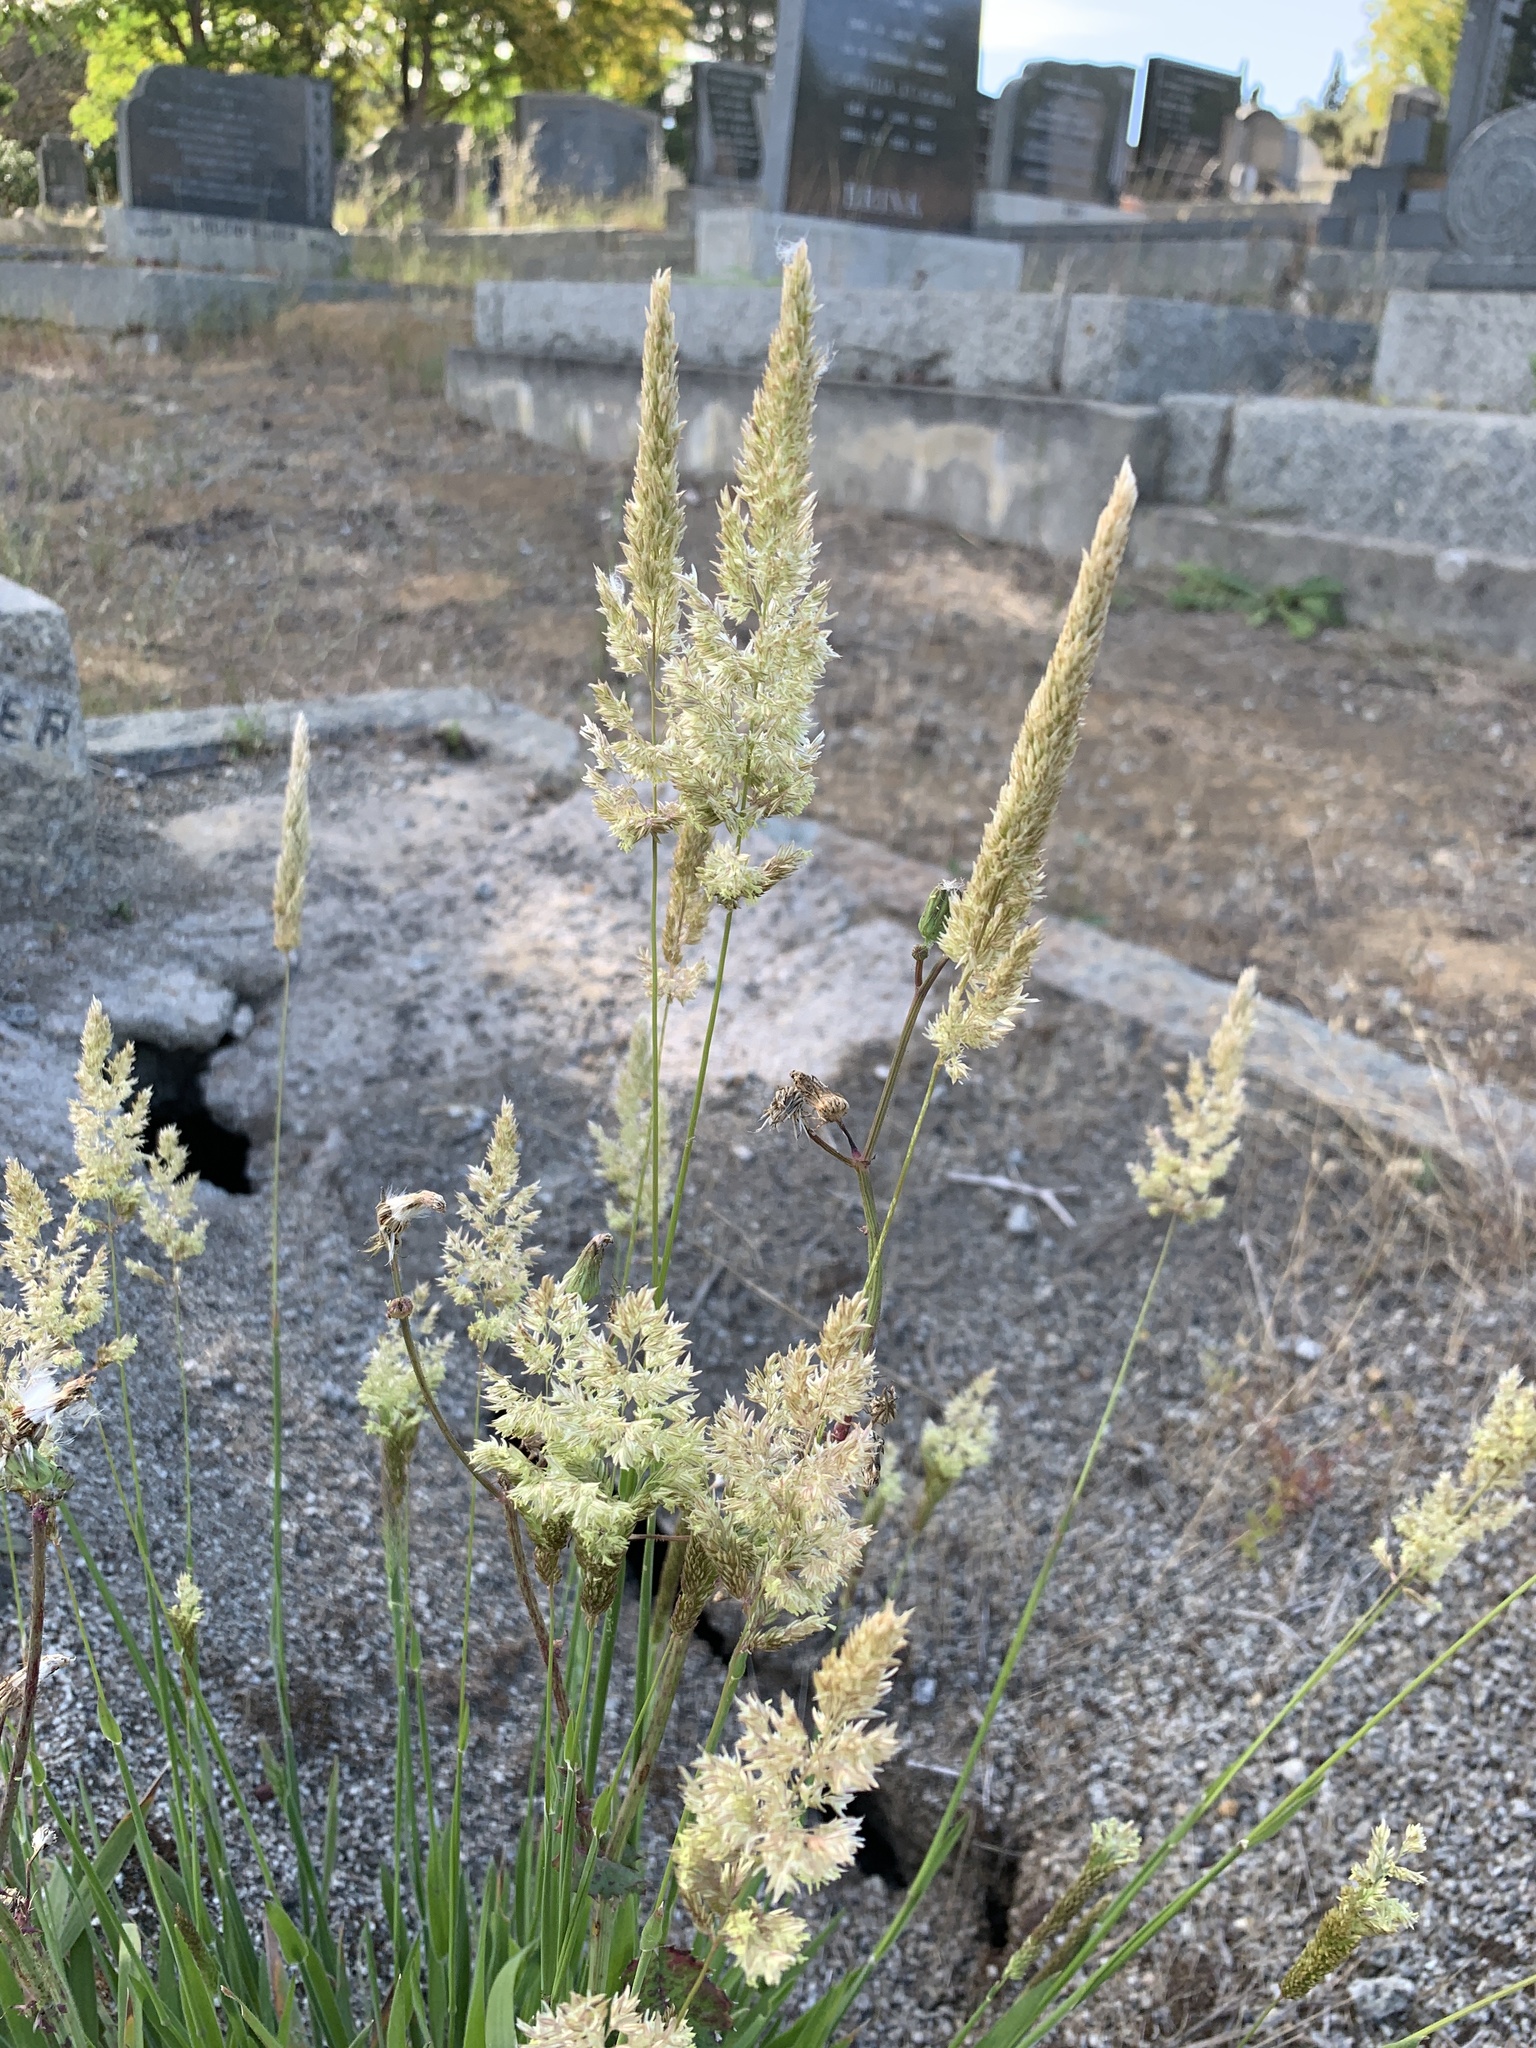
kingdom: Plantae
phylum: Tracheophyta
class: Liliopsida
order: Poales
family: Poaceae
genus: Holcus
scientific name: Holcus lanatus
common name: Yorkshire-fog
